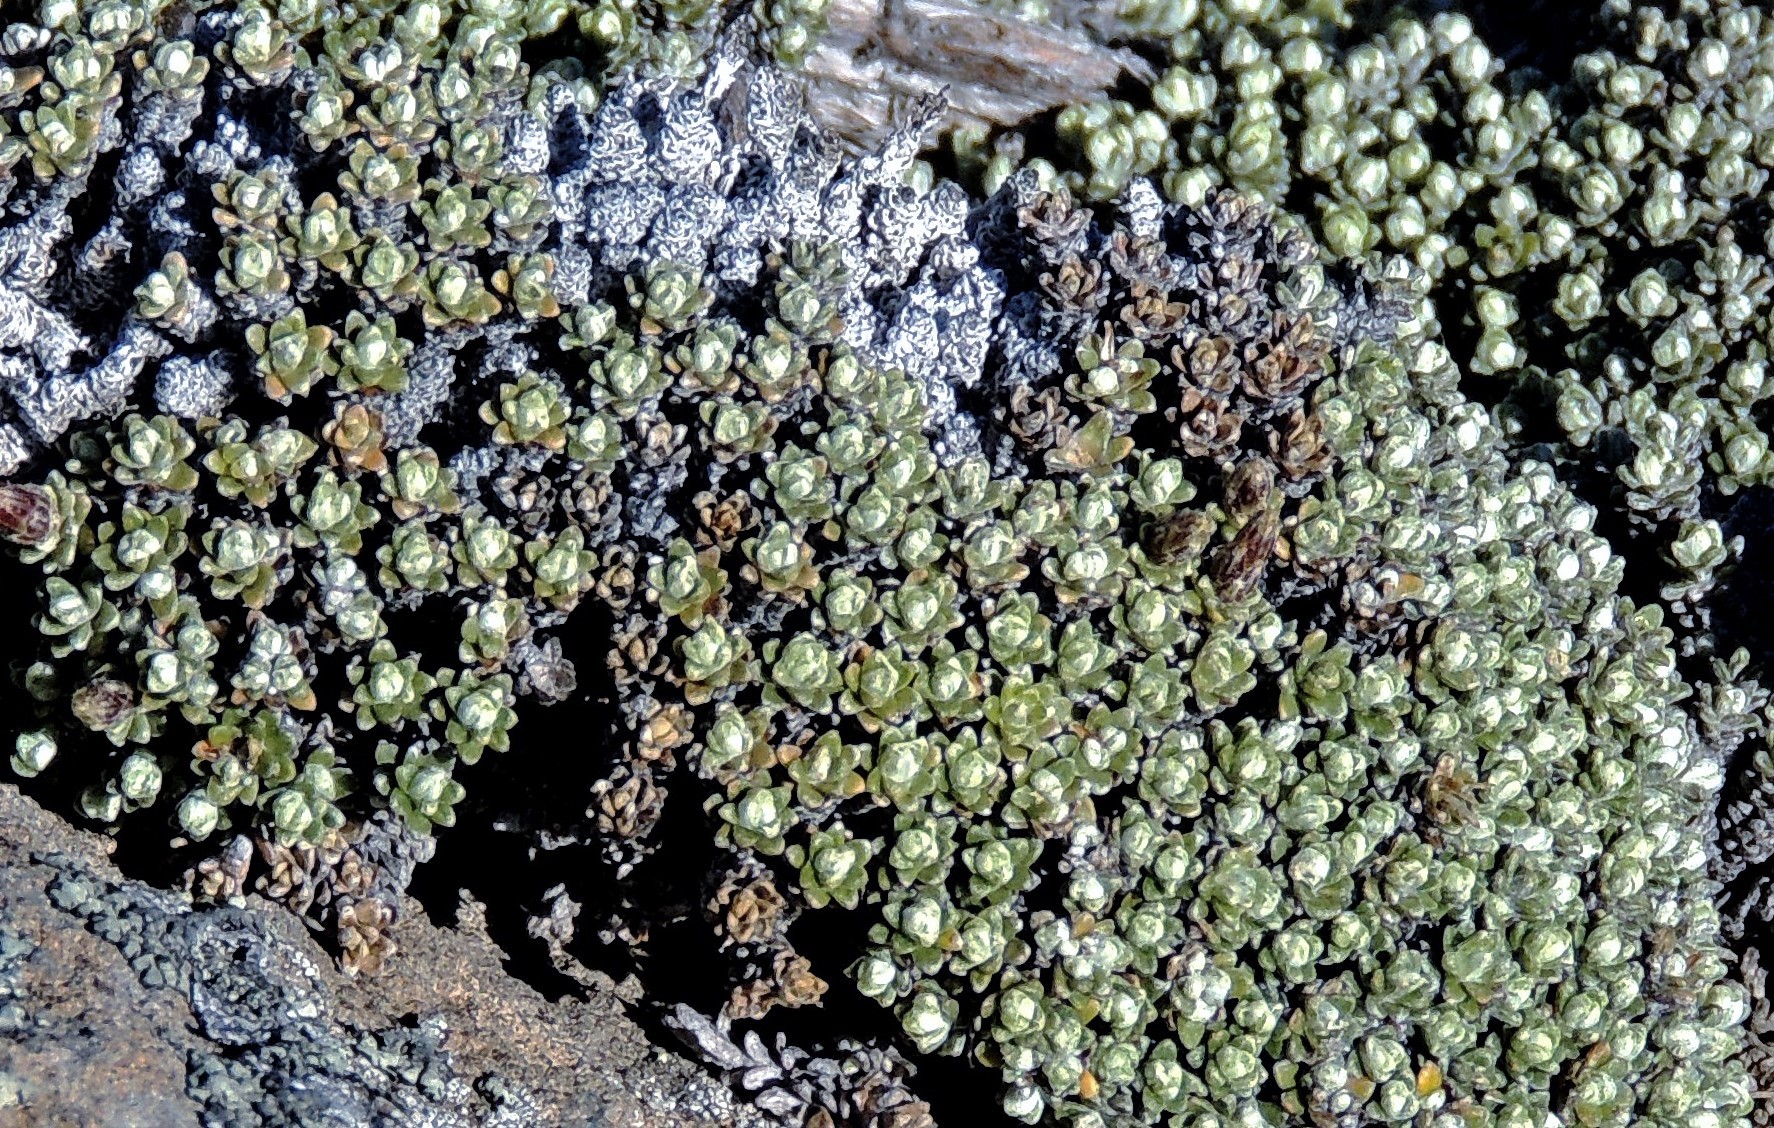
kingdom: Plantae
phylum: Tracheophyta
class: Magnoliopsida
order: Asterales
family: Asteraceae
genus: Nardophyllum
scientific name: Nardophyllum bryoides
